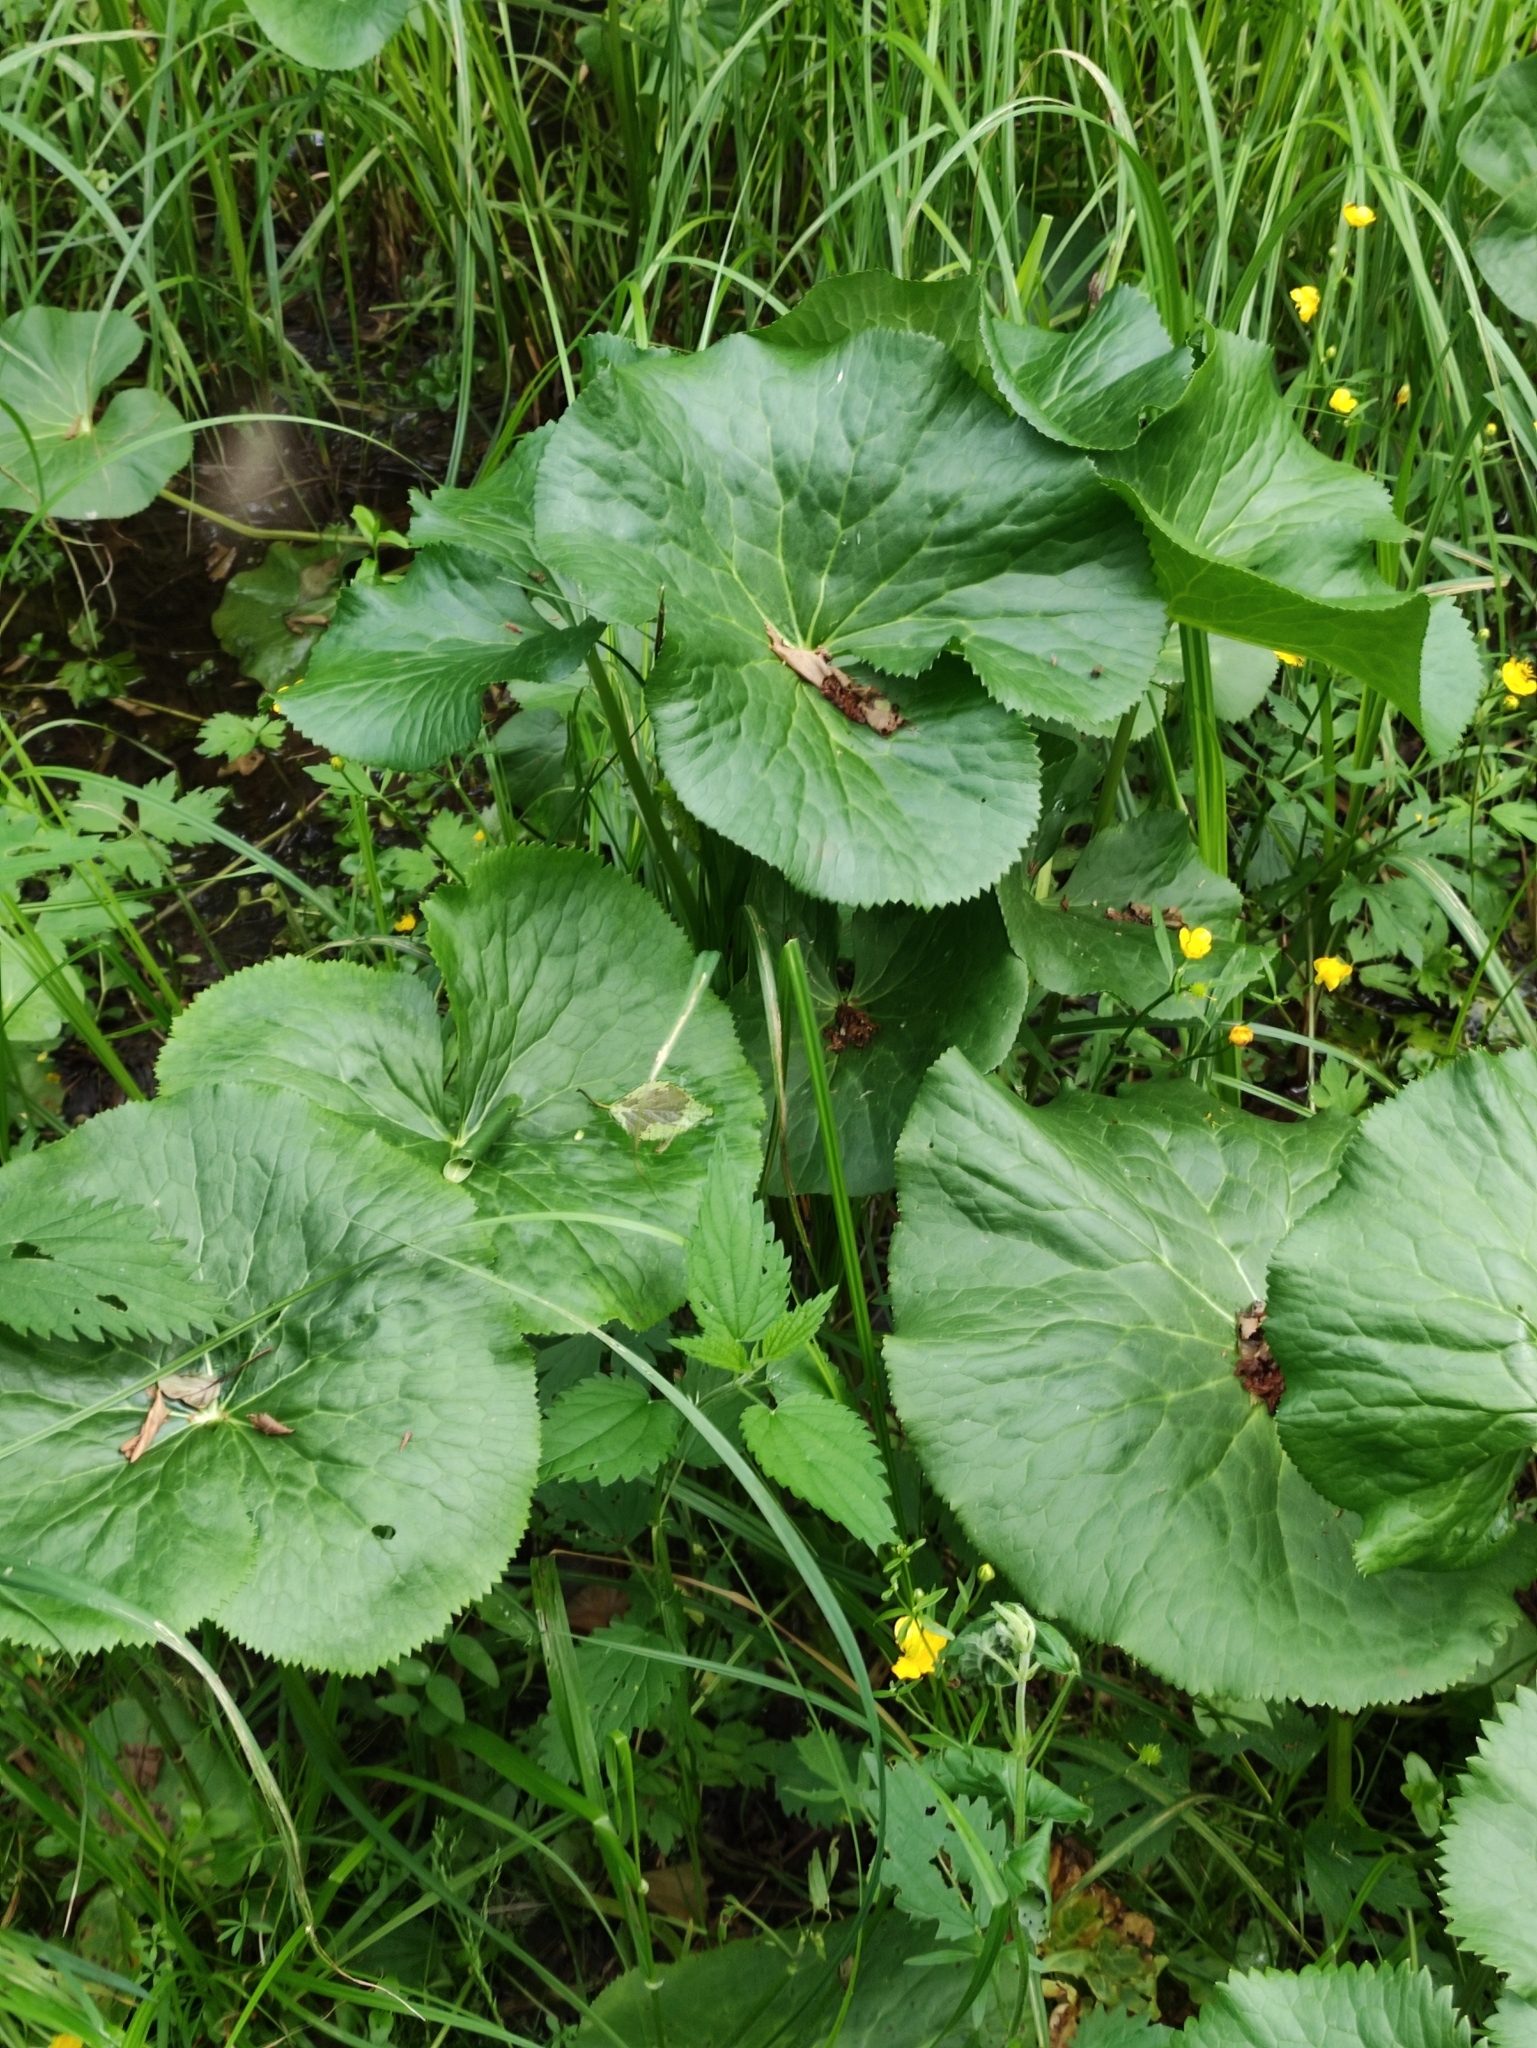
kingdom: Plantae
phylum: Tracheophyta
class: Magnoliopsida
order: Ranunculales
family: Ranunculaceae
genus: Caltha
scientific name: Caltha palustris
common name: Marsh marigold
